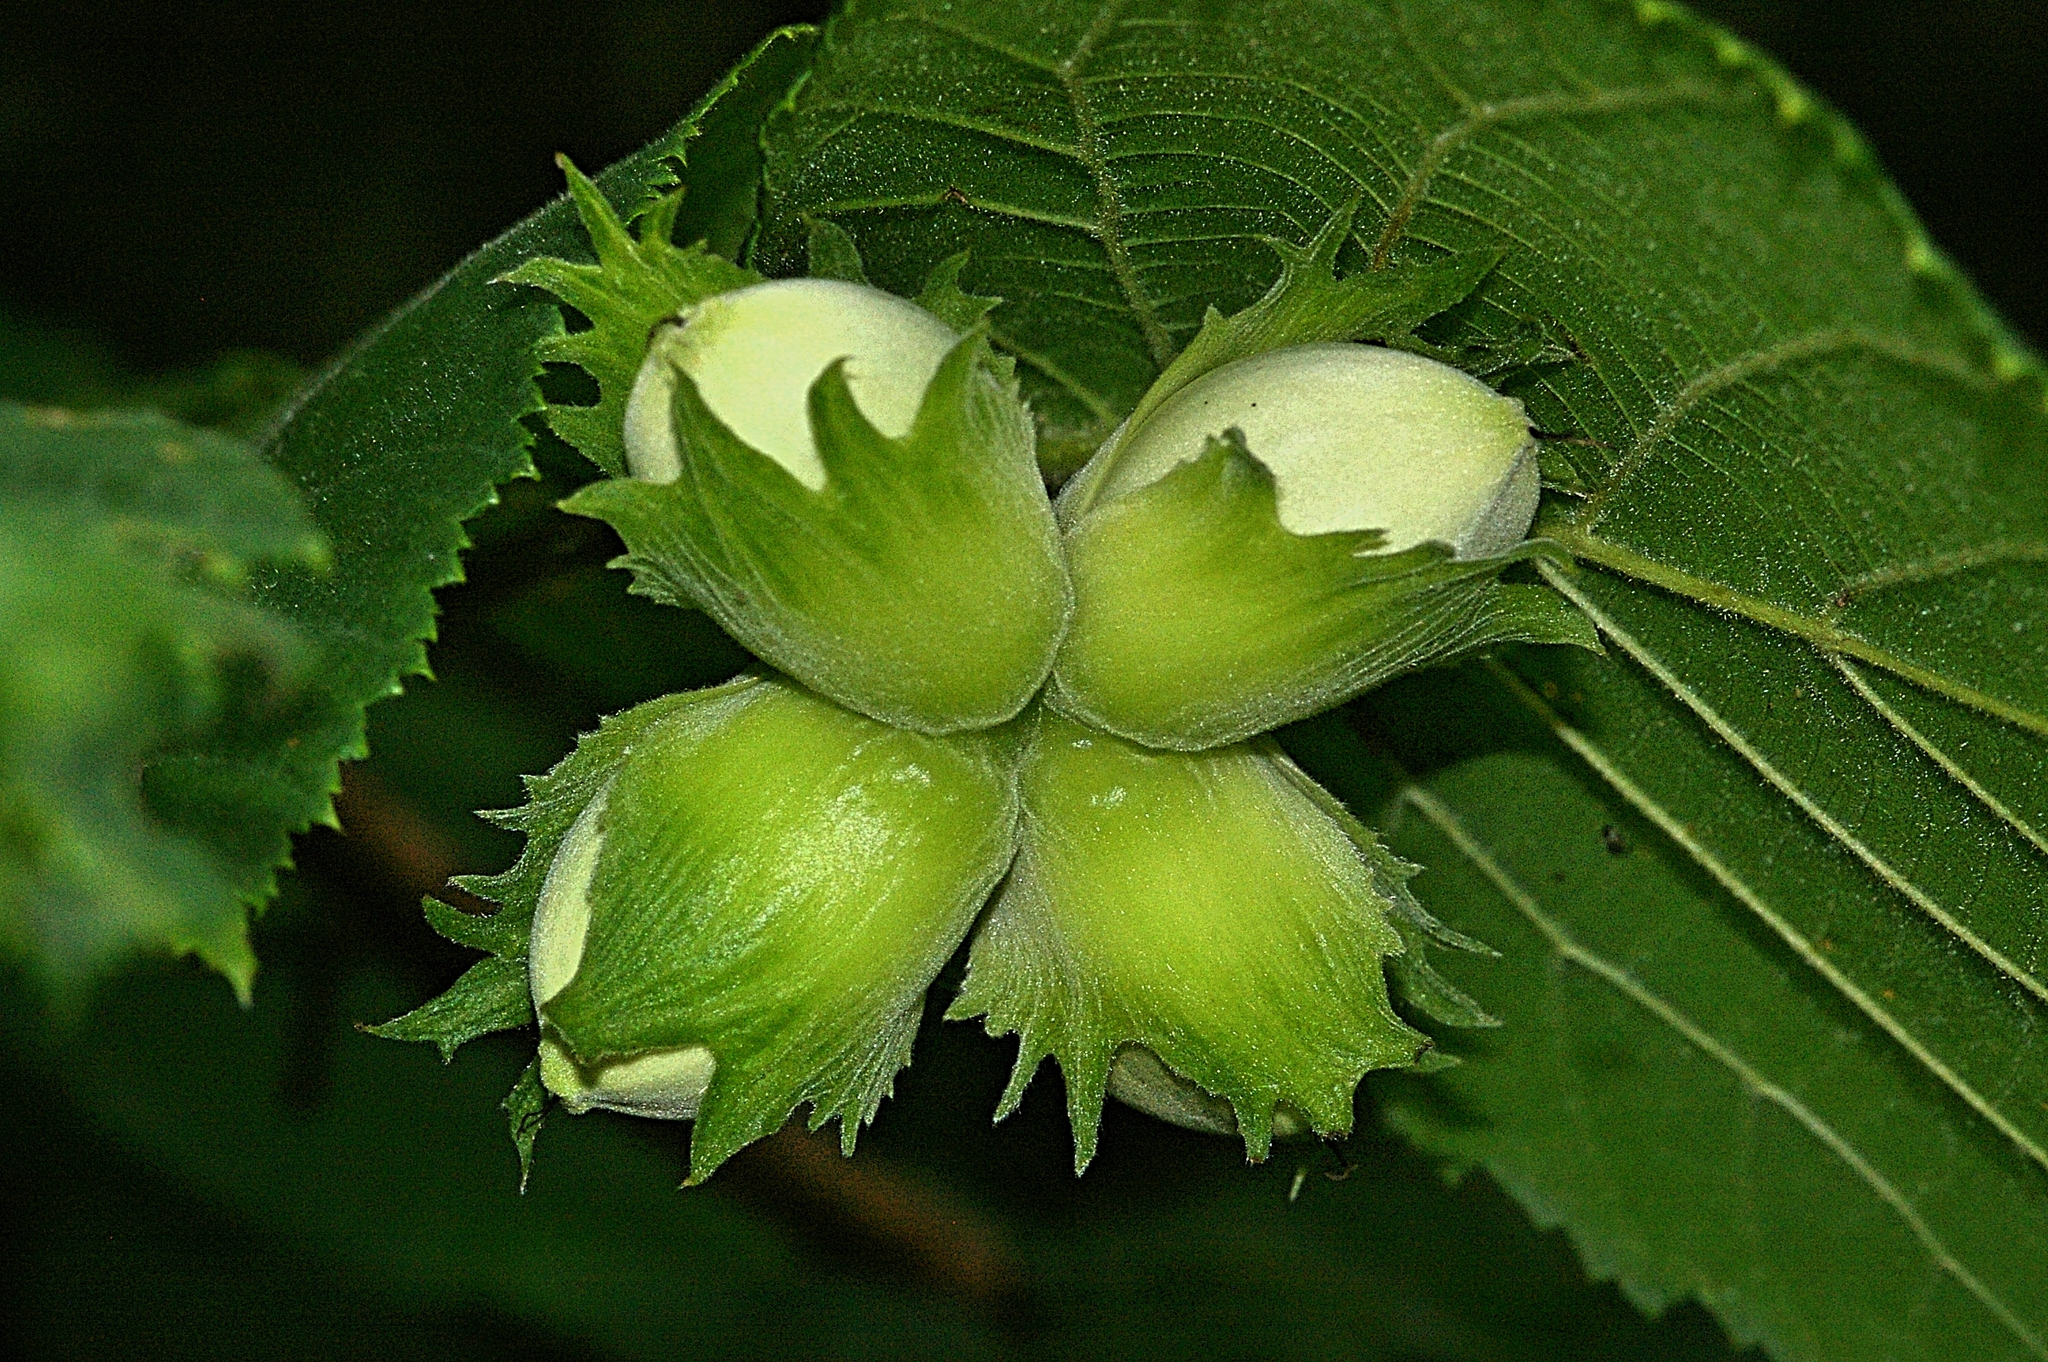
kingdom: Plantae
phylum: Tracheophyta
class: Magnoliopsida
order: Fagales
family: Betulaceae
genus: Corylus
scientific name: Corylus avellana
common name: European hazel
